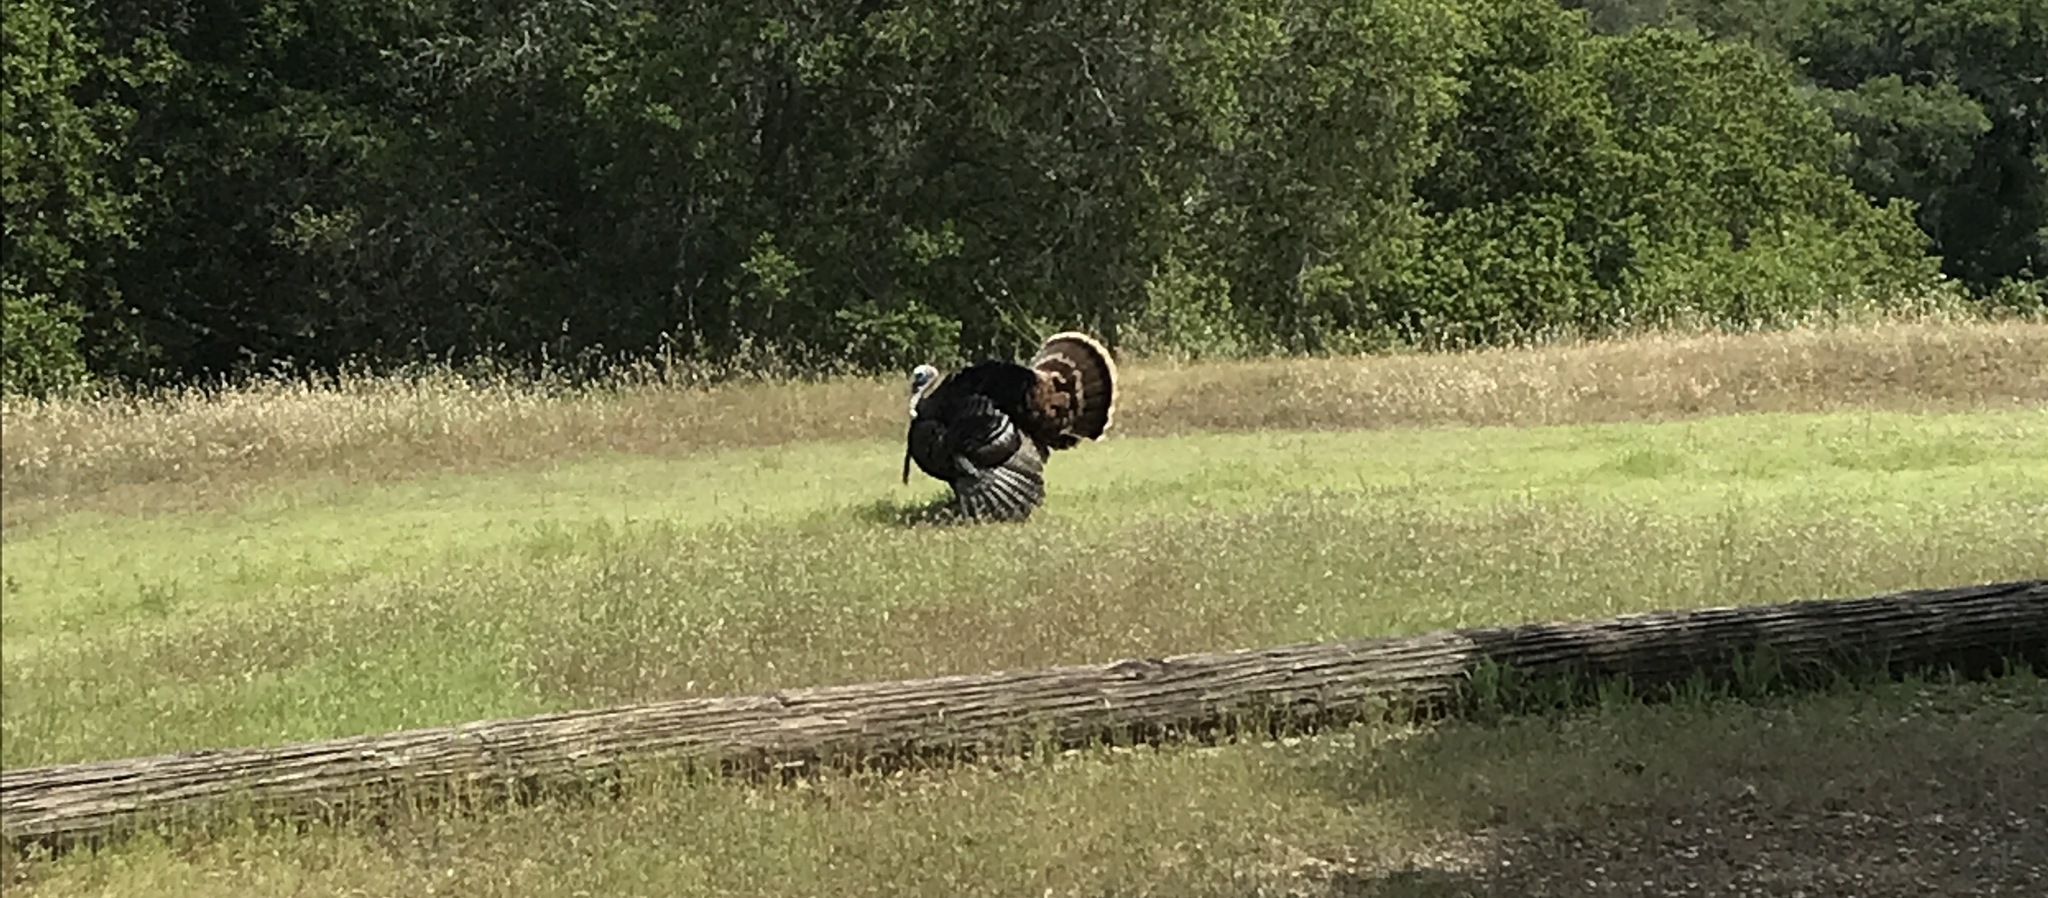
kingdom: Animalia
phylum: Chordata
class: Aves
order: Galliformes
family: Phasianidae
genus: Meleagris
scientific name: Meleagris gallopavo
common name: Wild turkey
